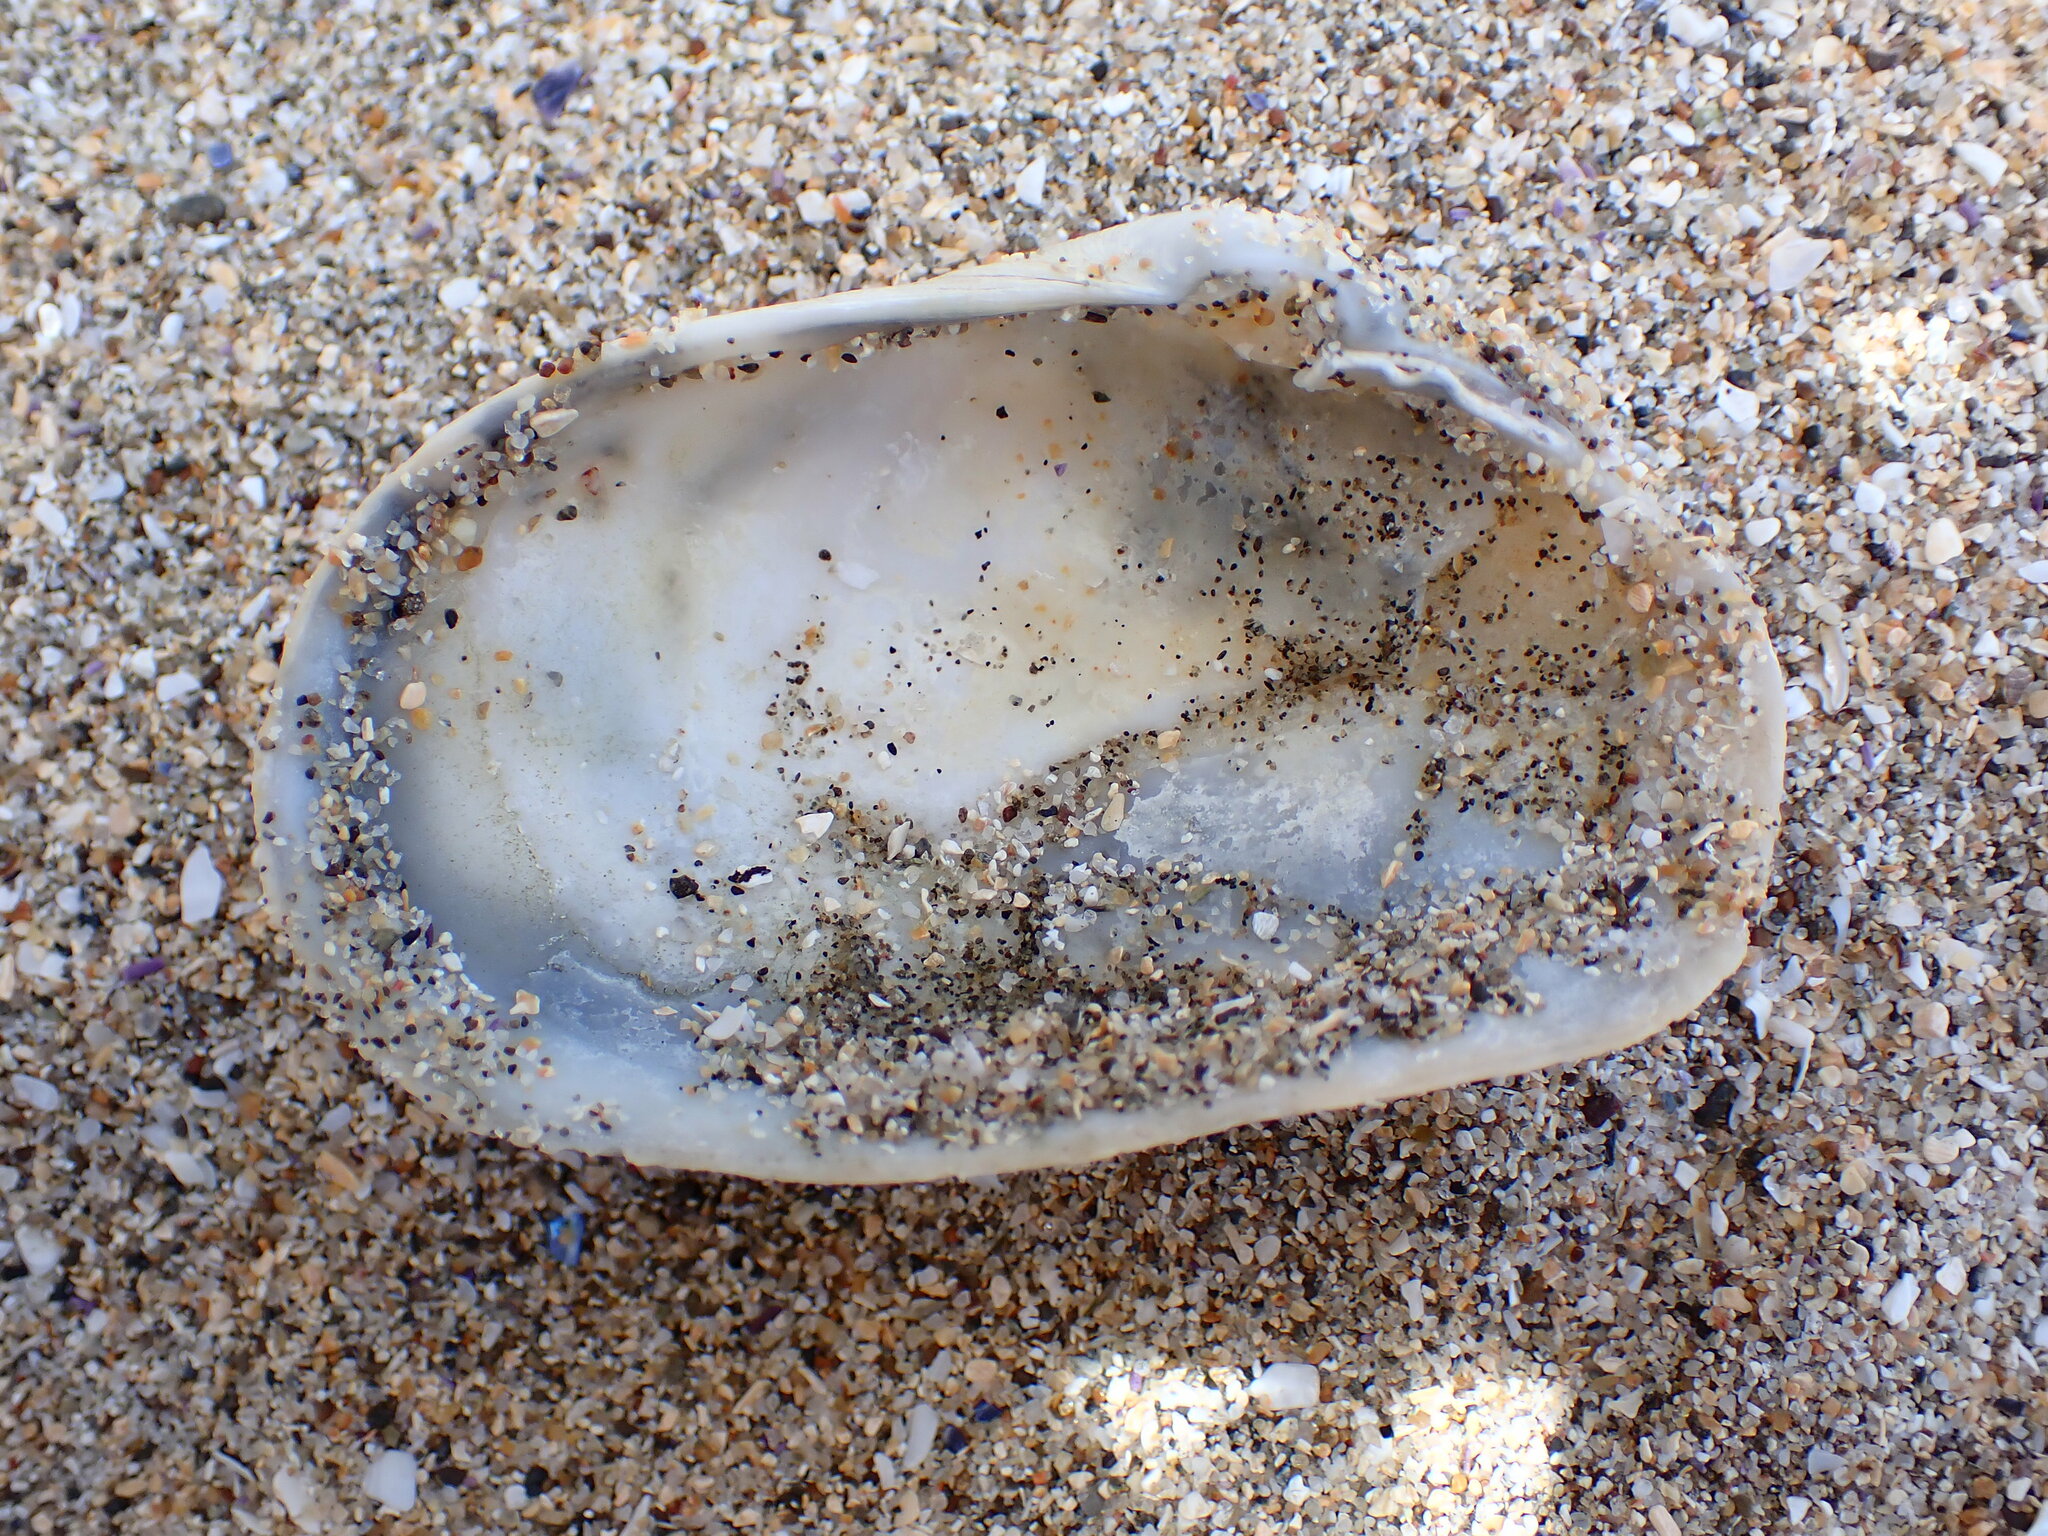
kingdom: Animalia
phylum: Mollusca
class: Bivalvia
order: Myida
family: Myidae
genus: Platyodon
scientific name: Platyodon cancellatus
